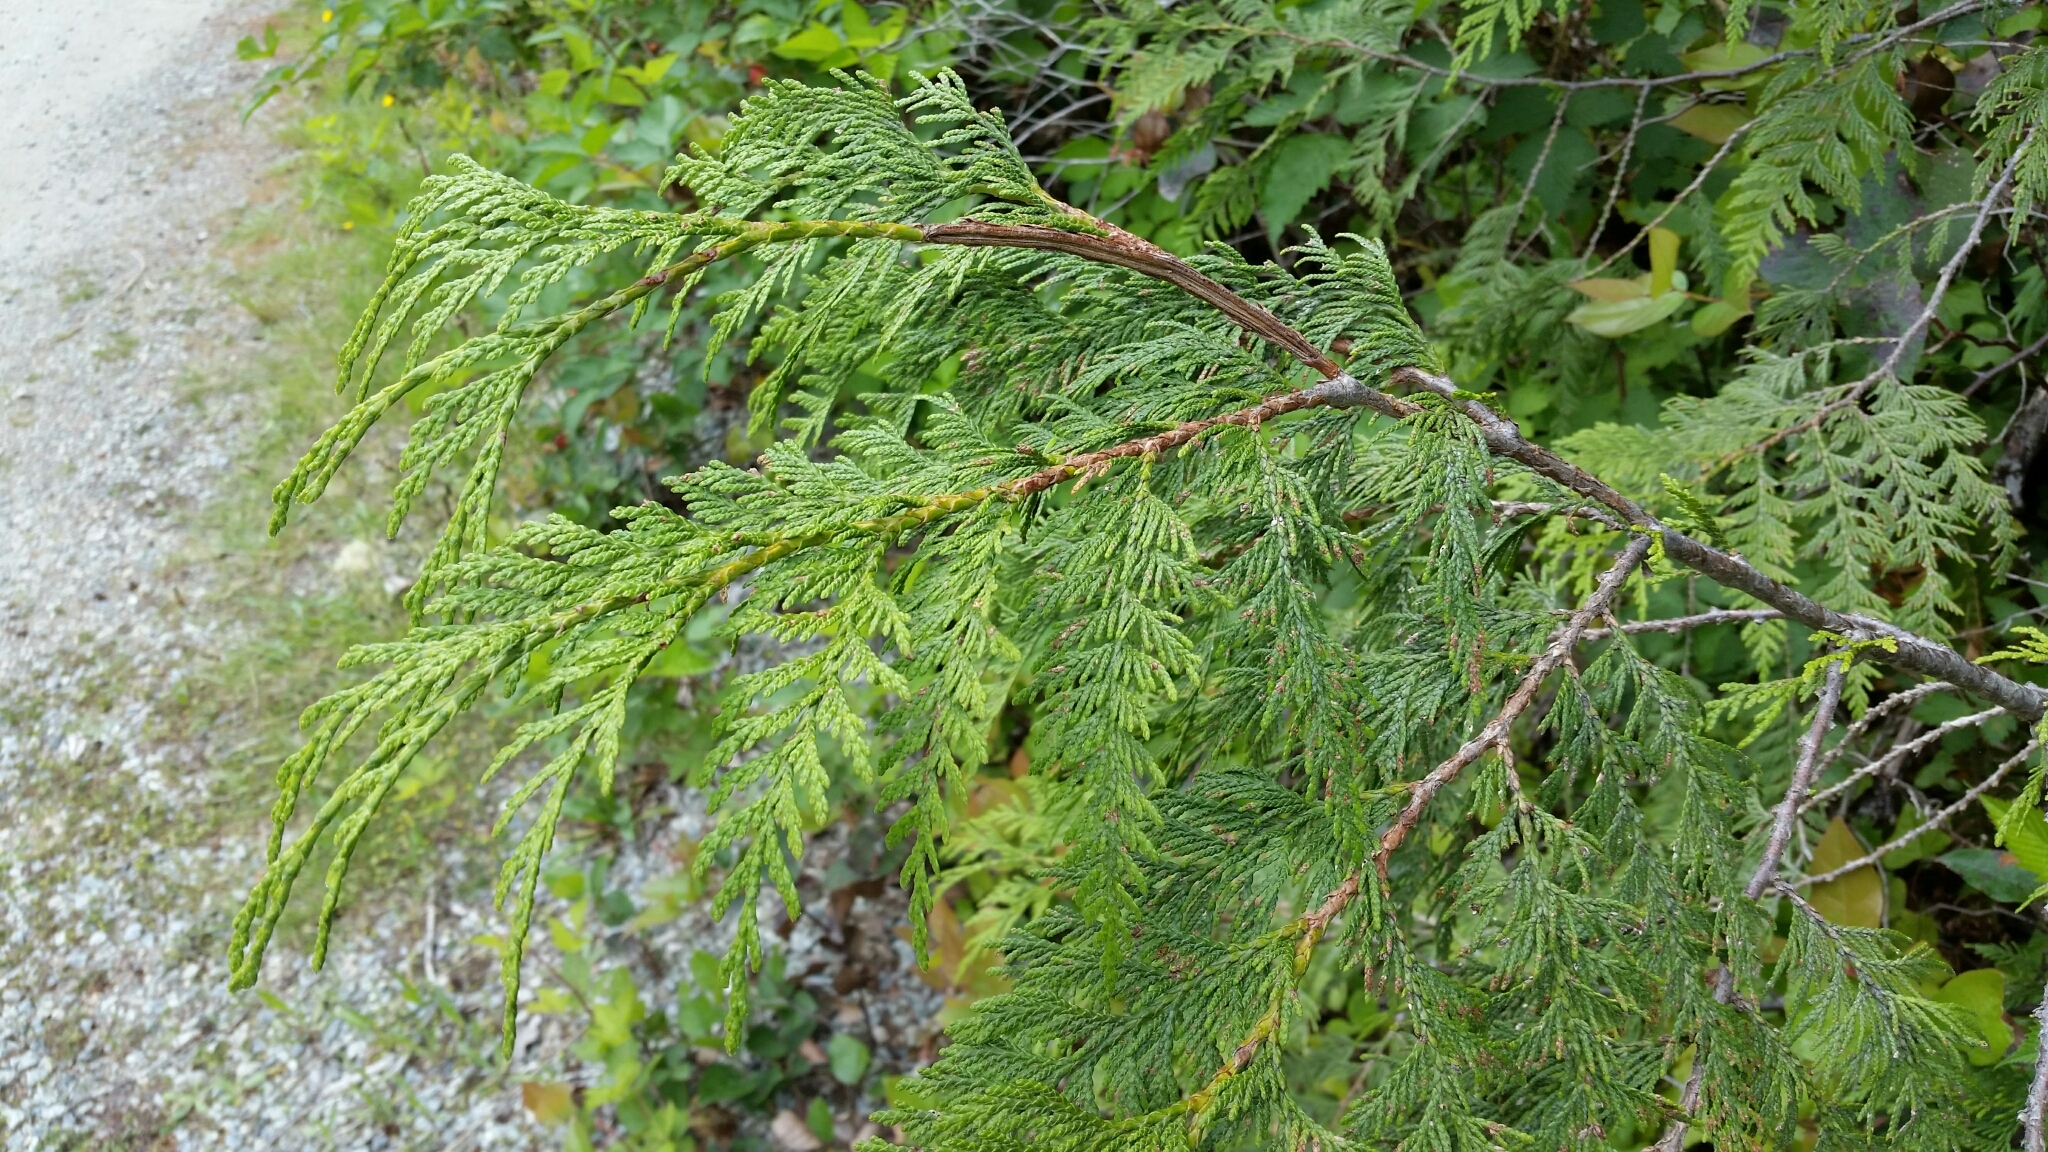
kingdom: Plantae
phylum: Tracheophyta
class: Pinopsida
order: Pinales
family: Cupressaceae
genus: Thuja
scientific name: Thuja plicata
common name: Western red-cedar
